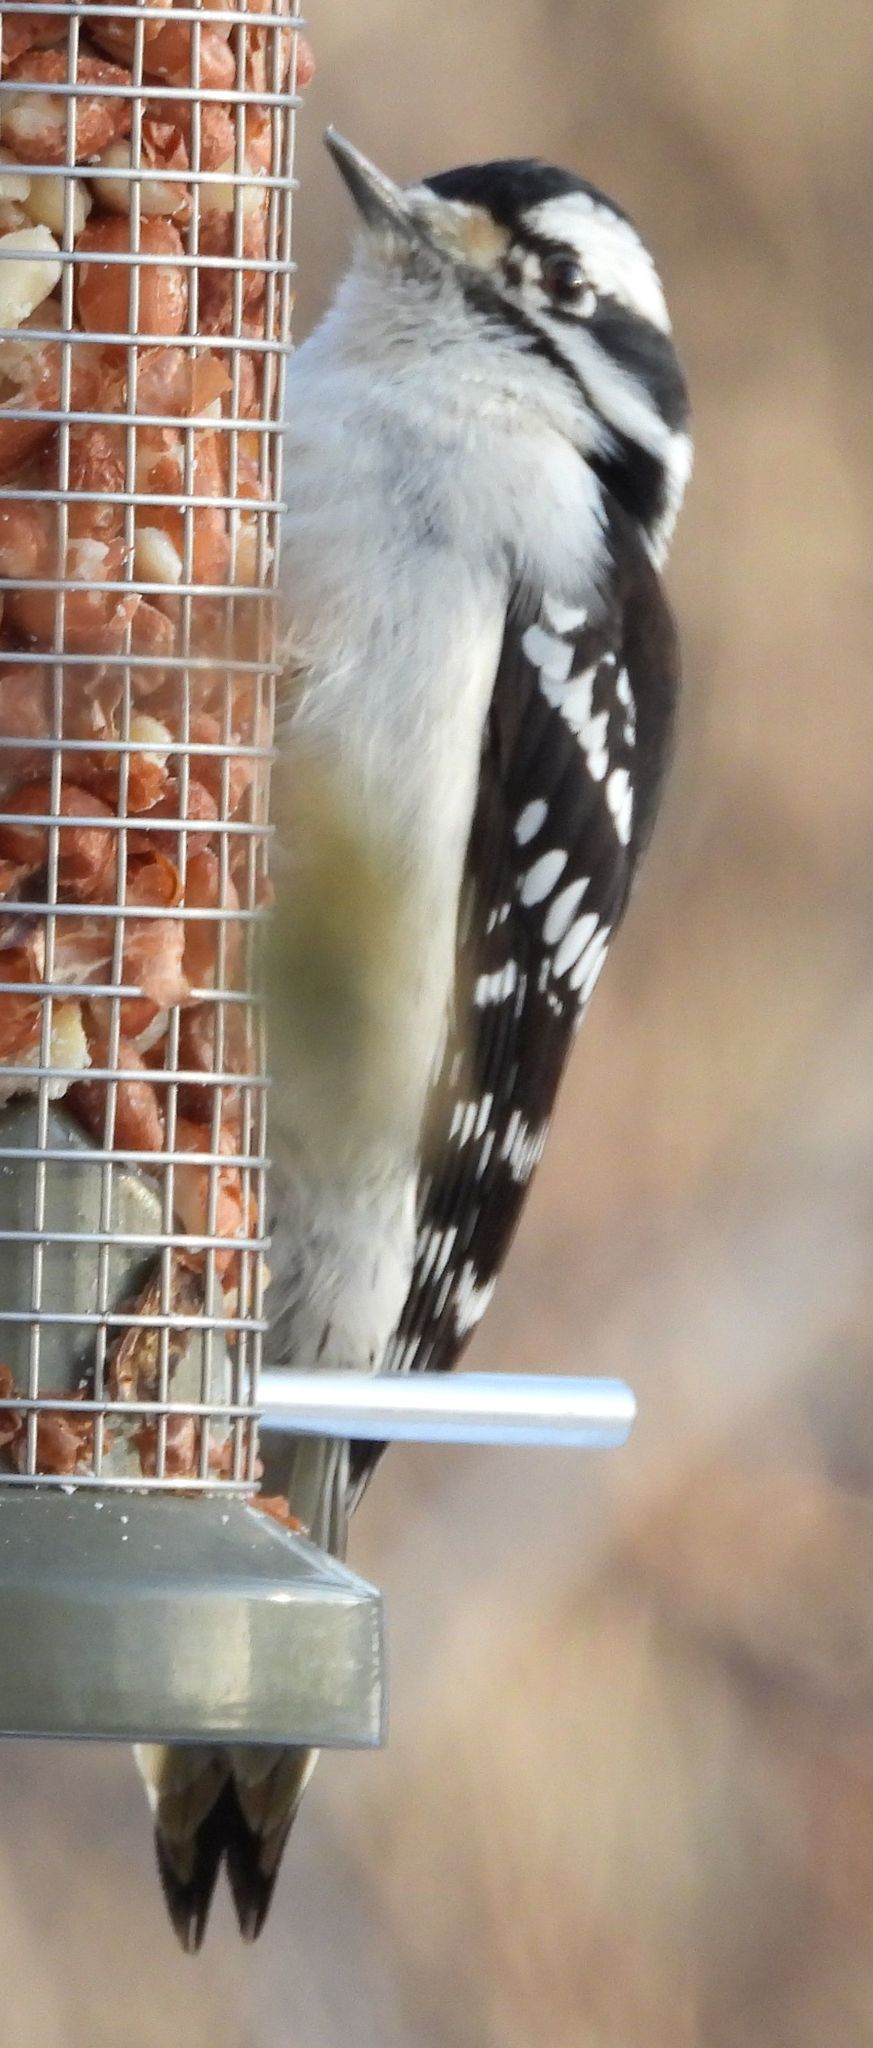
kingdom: Animalia
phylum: Chordata
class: Aves
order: Piciformes
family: Picidae
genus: Dryobates
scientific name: Dryobates pubescens
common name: Downy woodpecker
